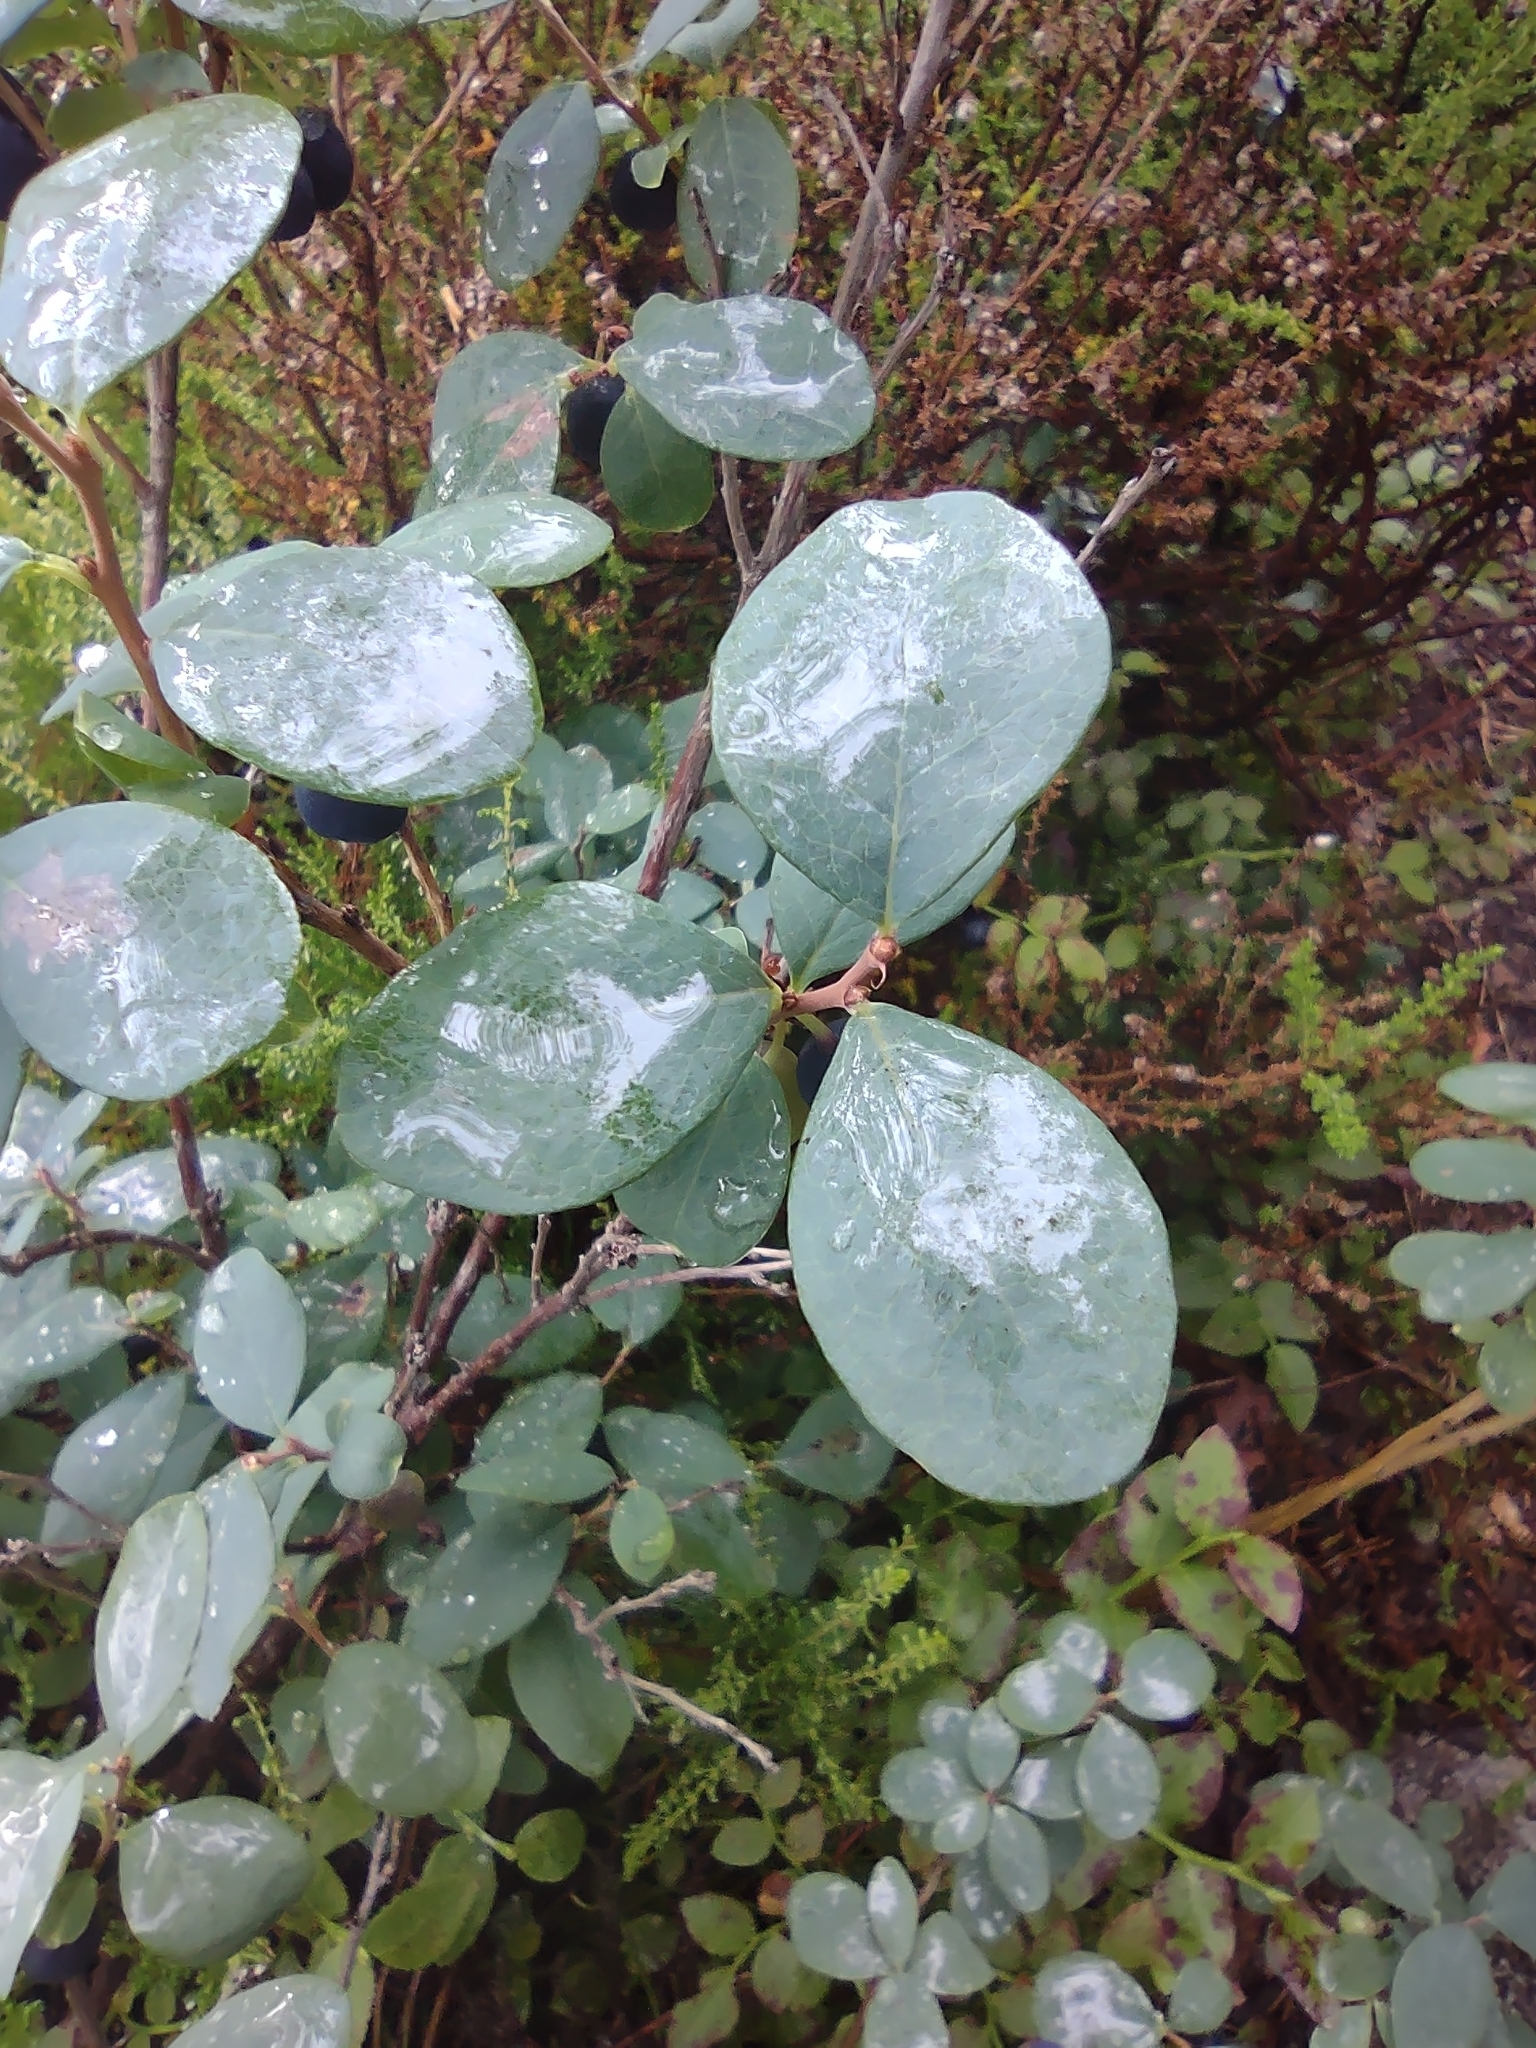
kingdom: Plantae
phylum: Tracheophyta
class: Magnoliopsida
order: Ericales
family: Ericaceae
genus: Vaccinium
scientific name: Vaccinium uliginosum
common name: Bog bilberry
